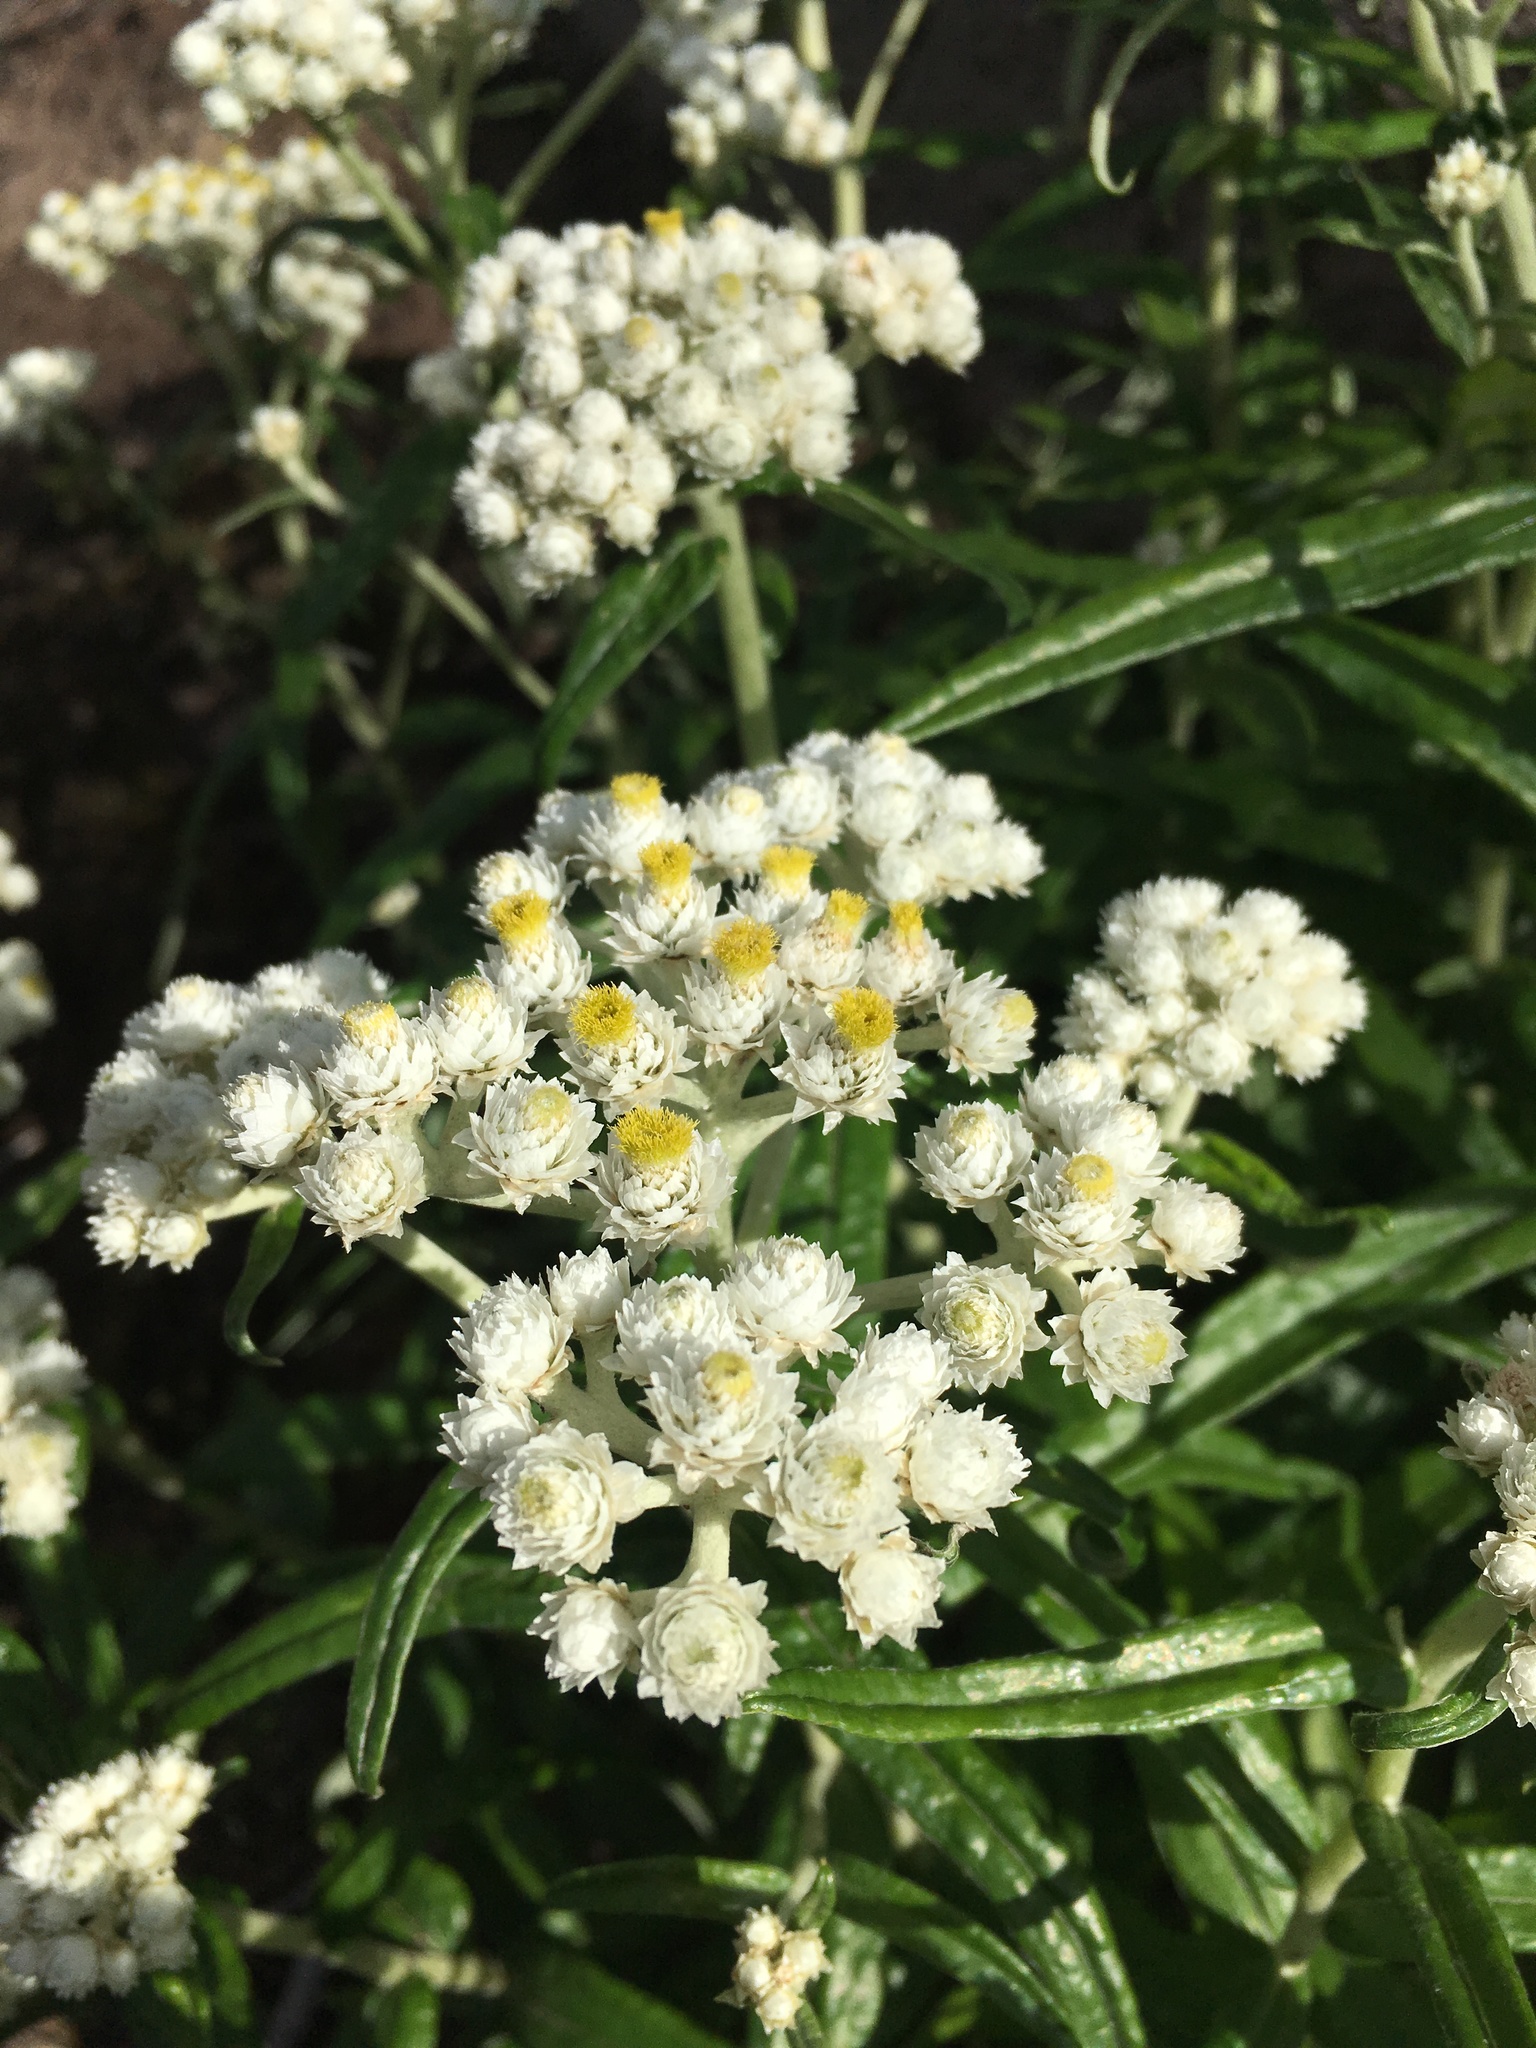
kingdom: Plantae
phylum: Tracheophyta
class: Magnoliopsida
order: Asterales
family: Asteraceae
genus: Anaphalis
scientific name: Anaphalis margaritacea
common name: Pearly everlasting
